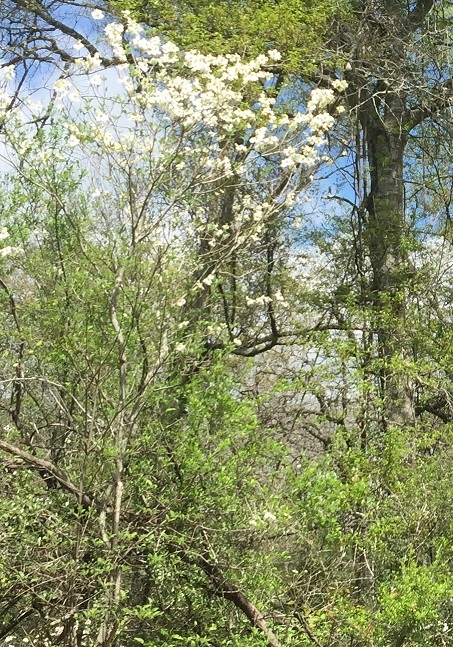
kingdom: Plantae
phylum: Tracheophyta
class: Magnoliopsida
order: Cornales
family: Cornaceae
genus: Cornus
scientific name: Cornus florida
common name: Flowering dogwood
